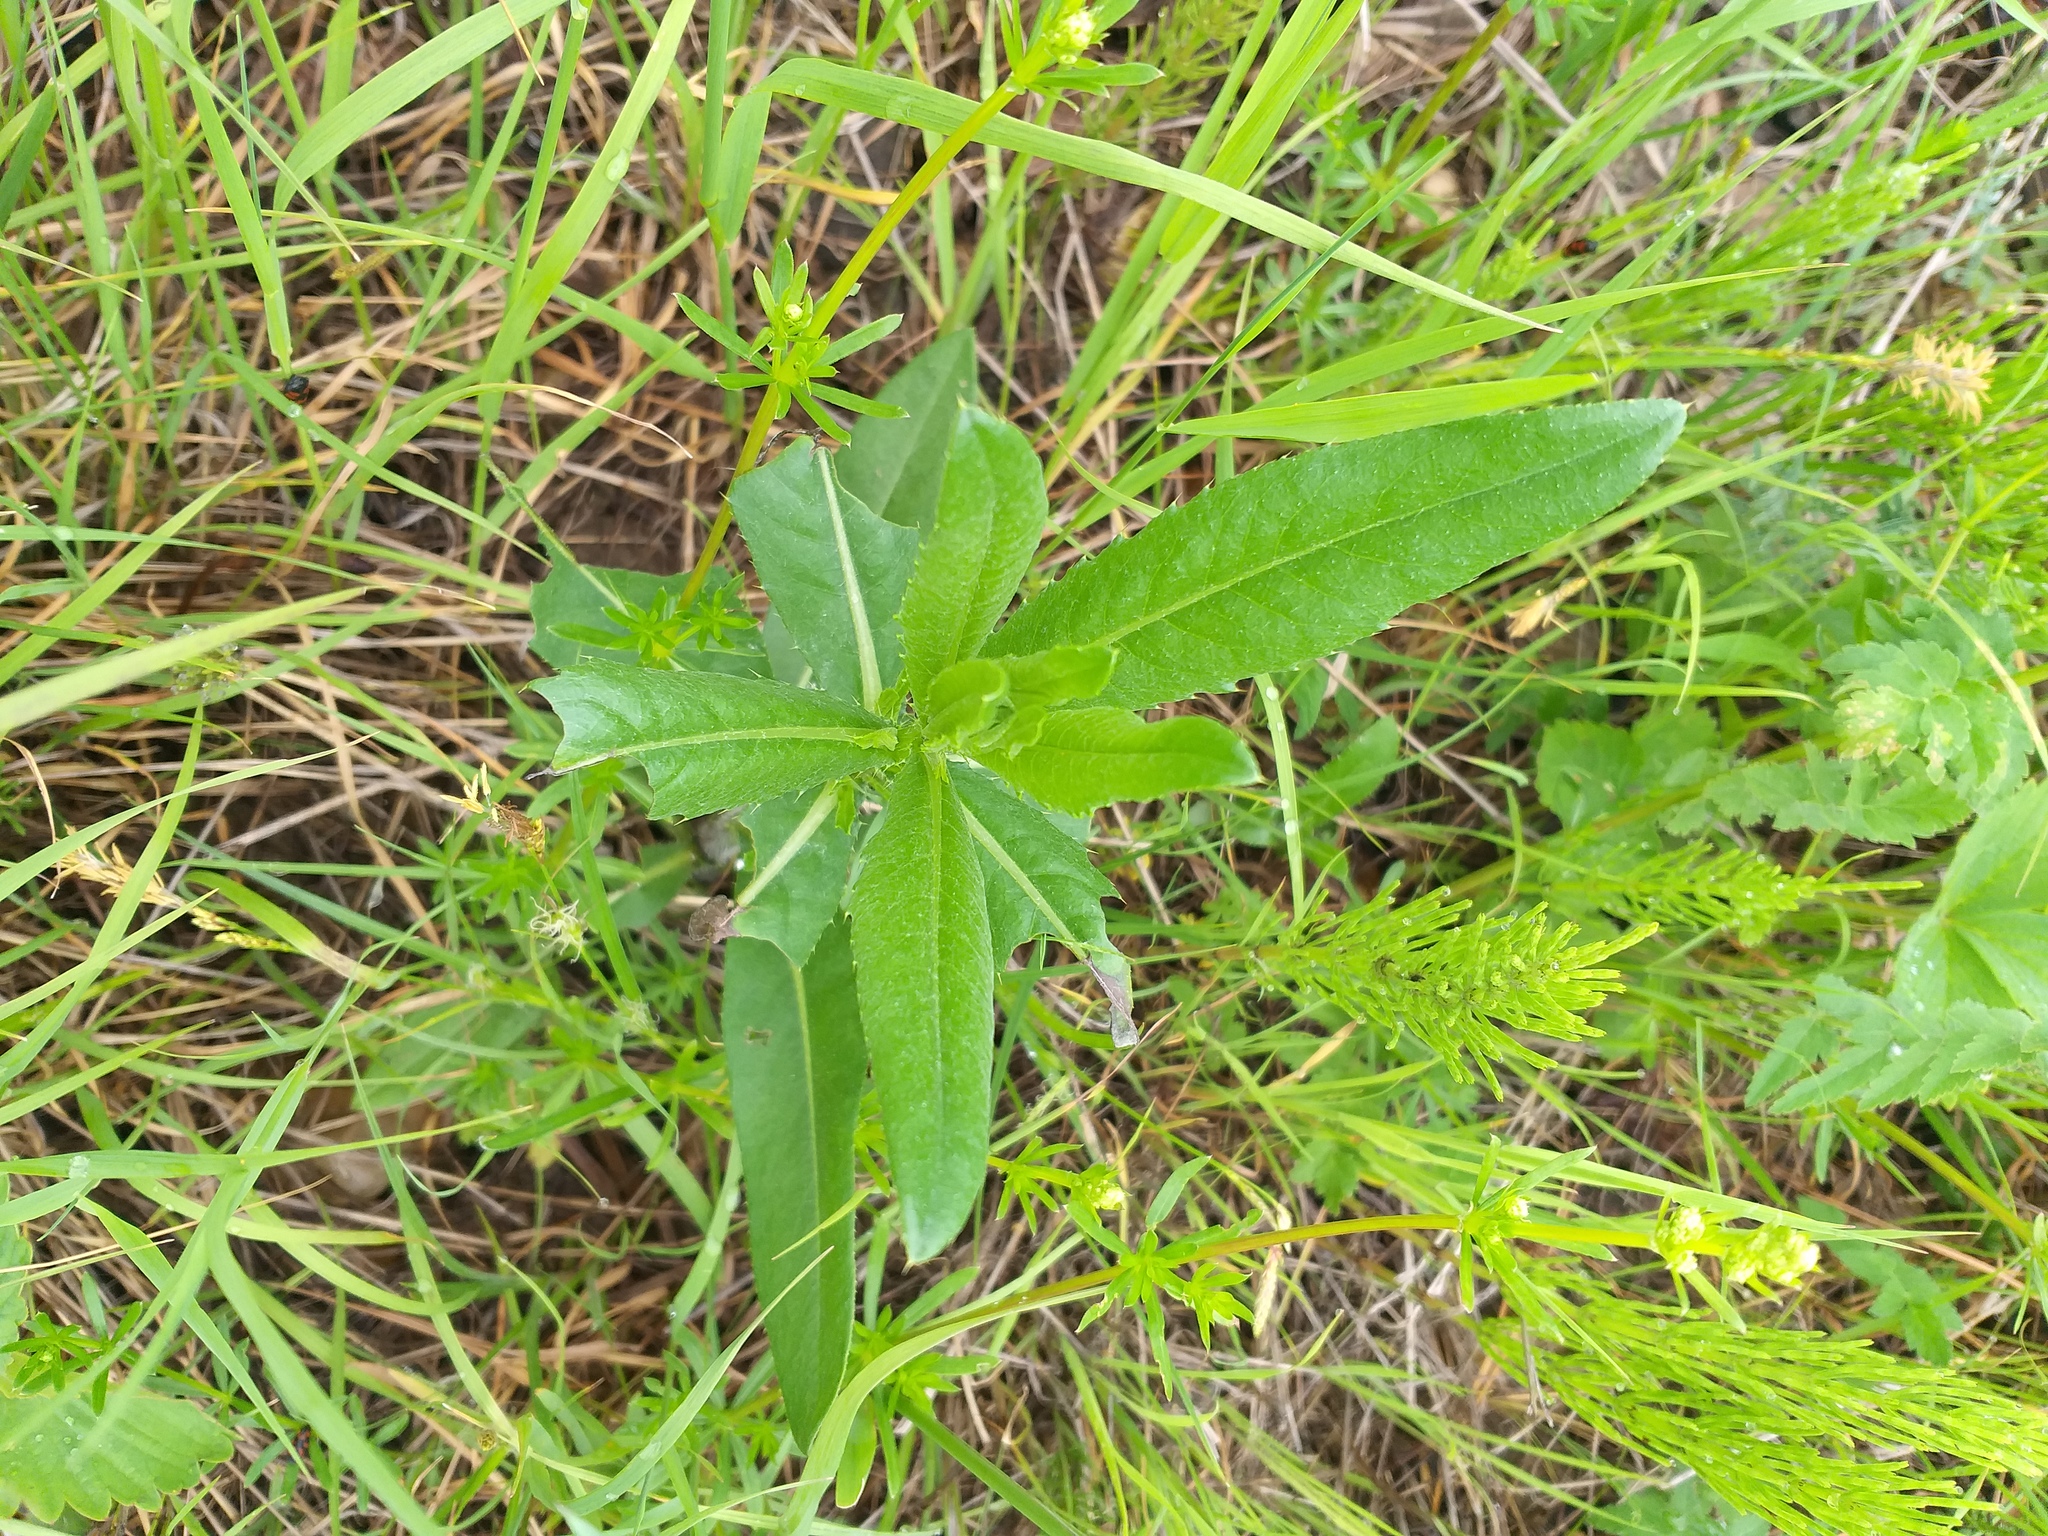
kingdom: Plantae
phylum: Tracheophyta
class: Magnoliopsida
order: Asterales
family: Asteraceae
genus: Cirsium
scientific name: Cirsium arvense
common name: Creeping thistle
